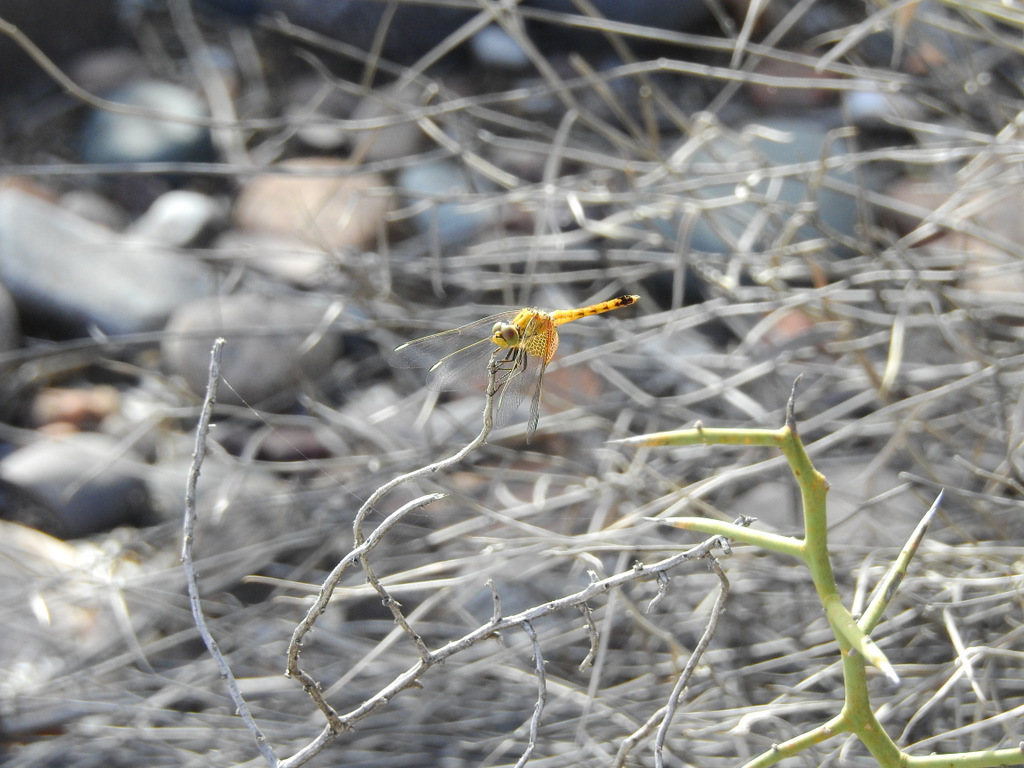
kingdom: Animalia
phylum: Arthropoda
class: Insecta
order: Odonata
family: Libellulidae
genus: Erythrodiplax
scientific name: Erythrodiplax corallina
